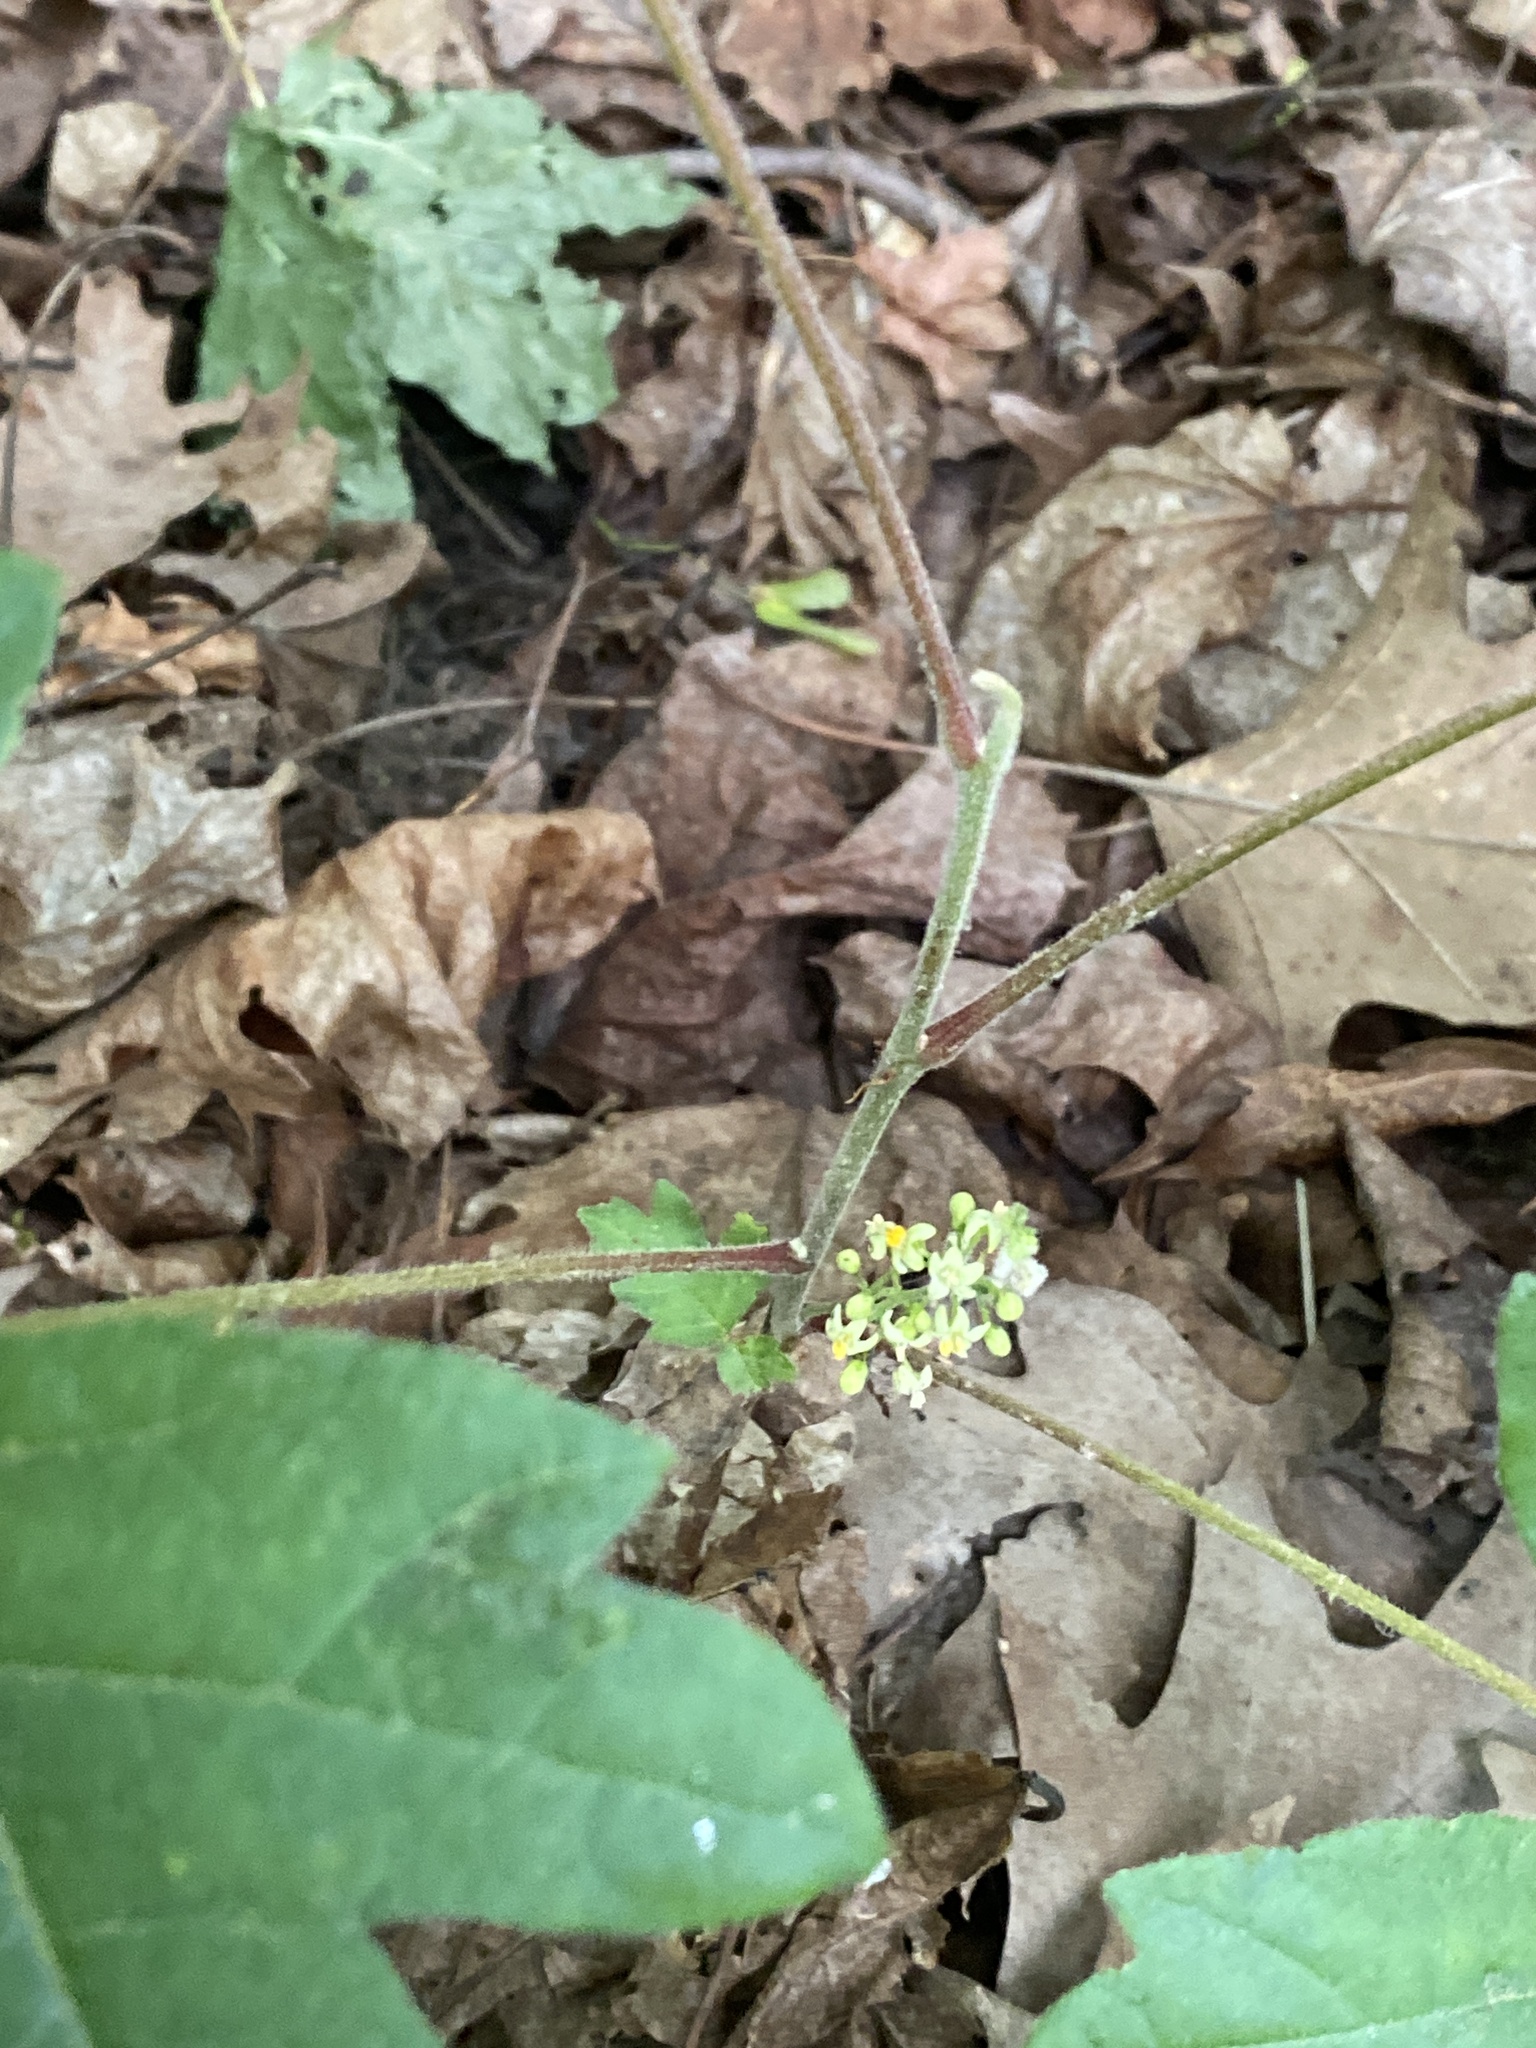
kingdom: Plantae
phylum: Tracheophyta
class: Magnoliopsida
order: Sapindales
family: Anacardiaceae
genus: Toxicodendron
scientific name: Toxicodendron radicans
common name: Poison ivy
